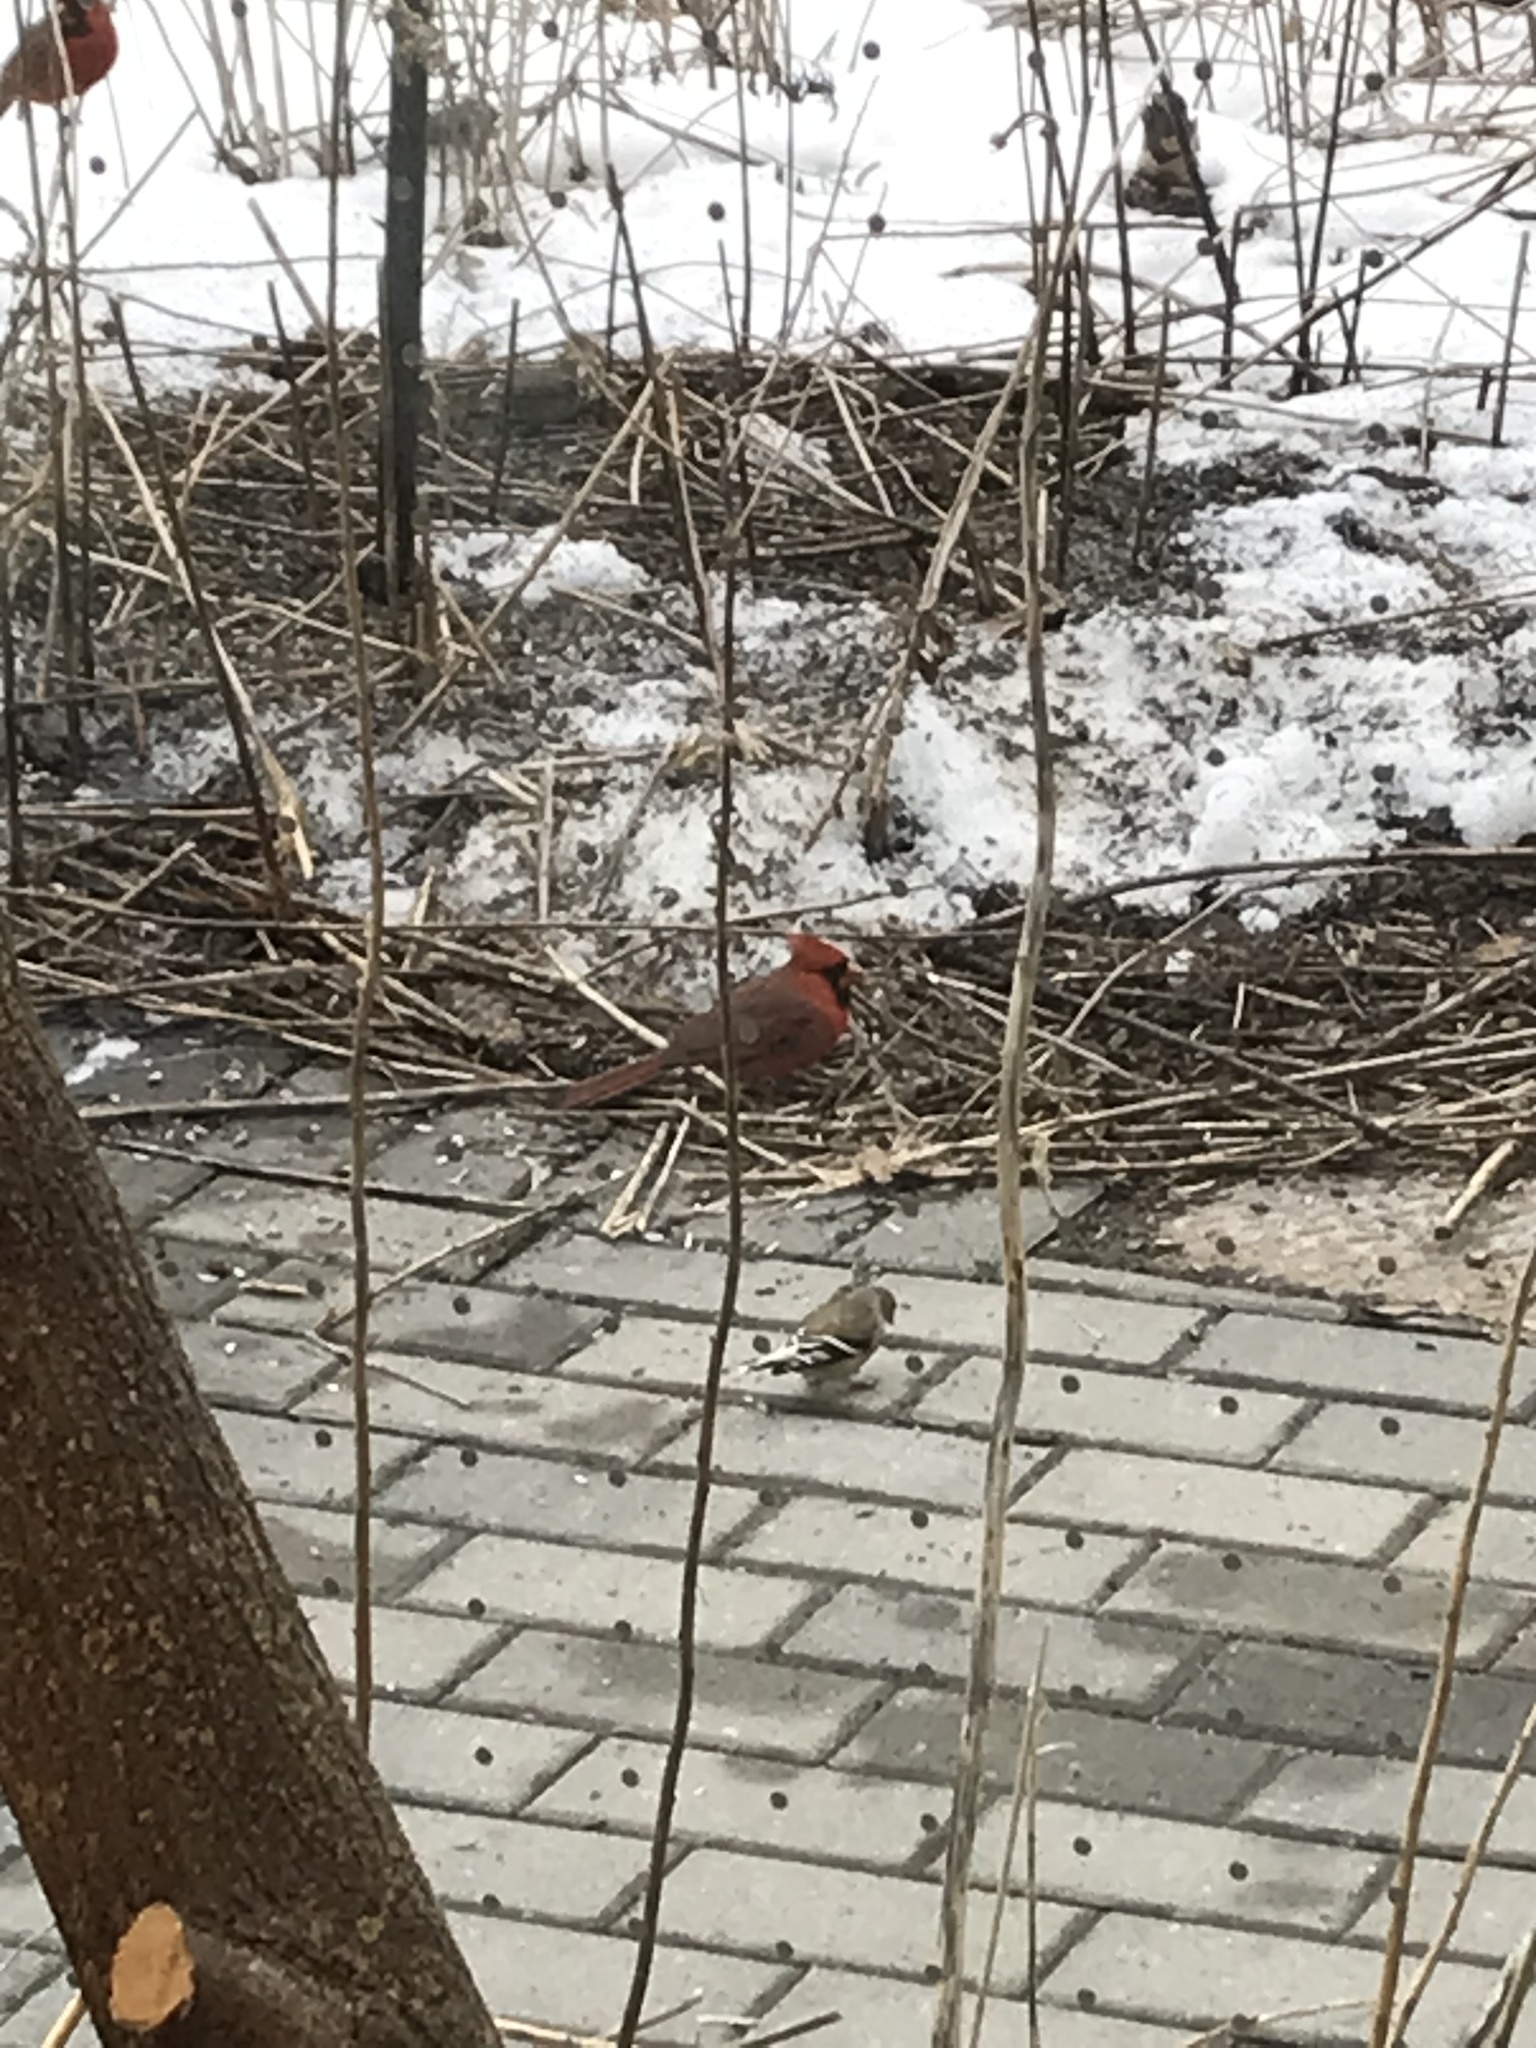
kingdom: Animalia
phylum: Chordata
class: Aves
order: Passeriformes
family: Cardinalidae
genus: Cardinalis
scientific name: Cardinalis cardinalis
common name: Northern cardinal
